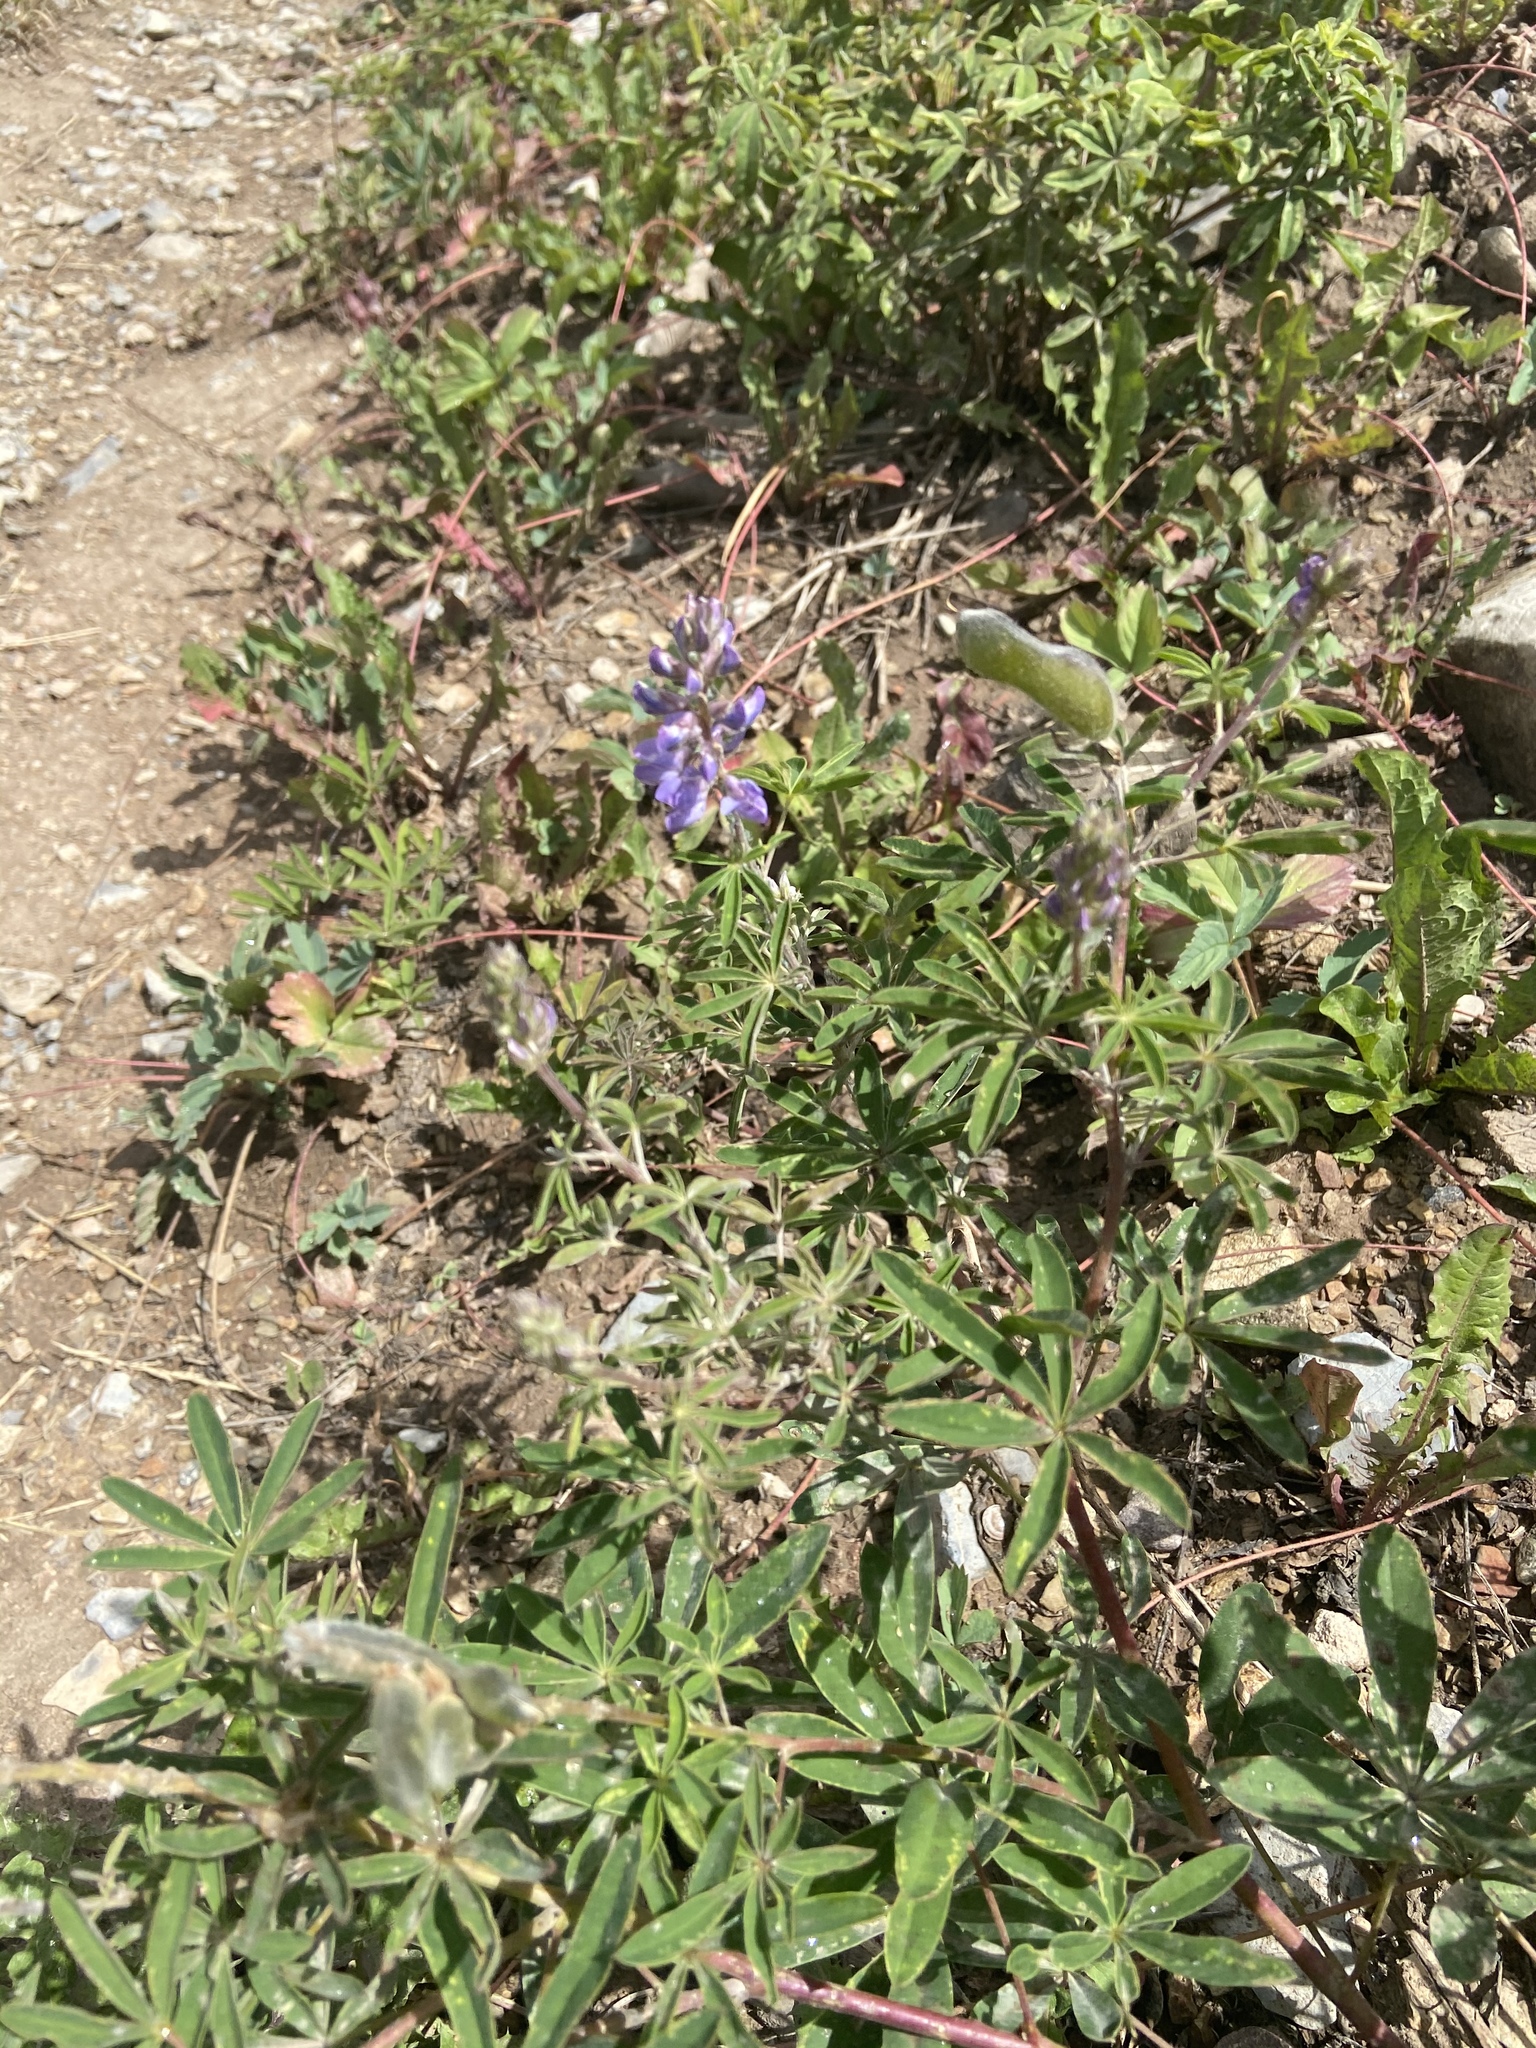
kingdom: Plantae
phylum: Tracheophyta
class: Magnoliopsida
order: Fabales
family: Fabaceae
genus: Lupinus
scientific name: Lupinus argenteus
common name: Silvery lupine
